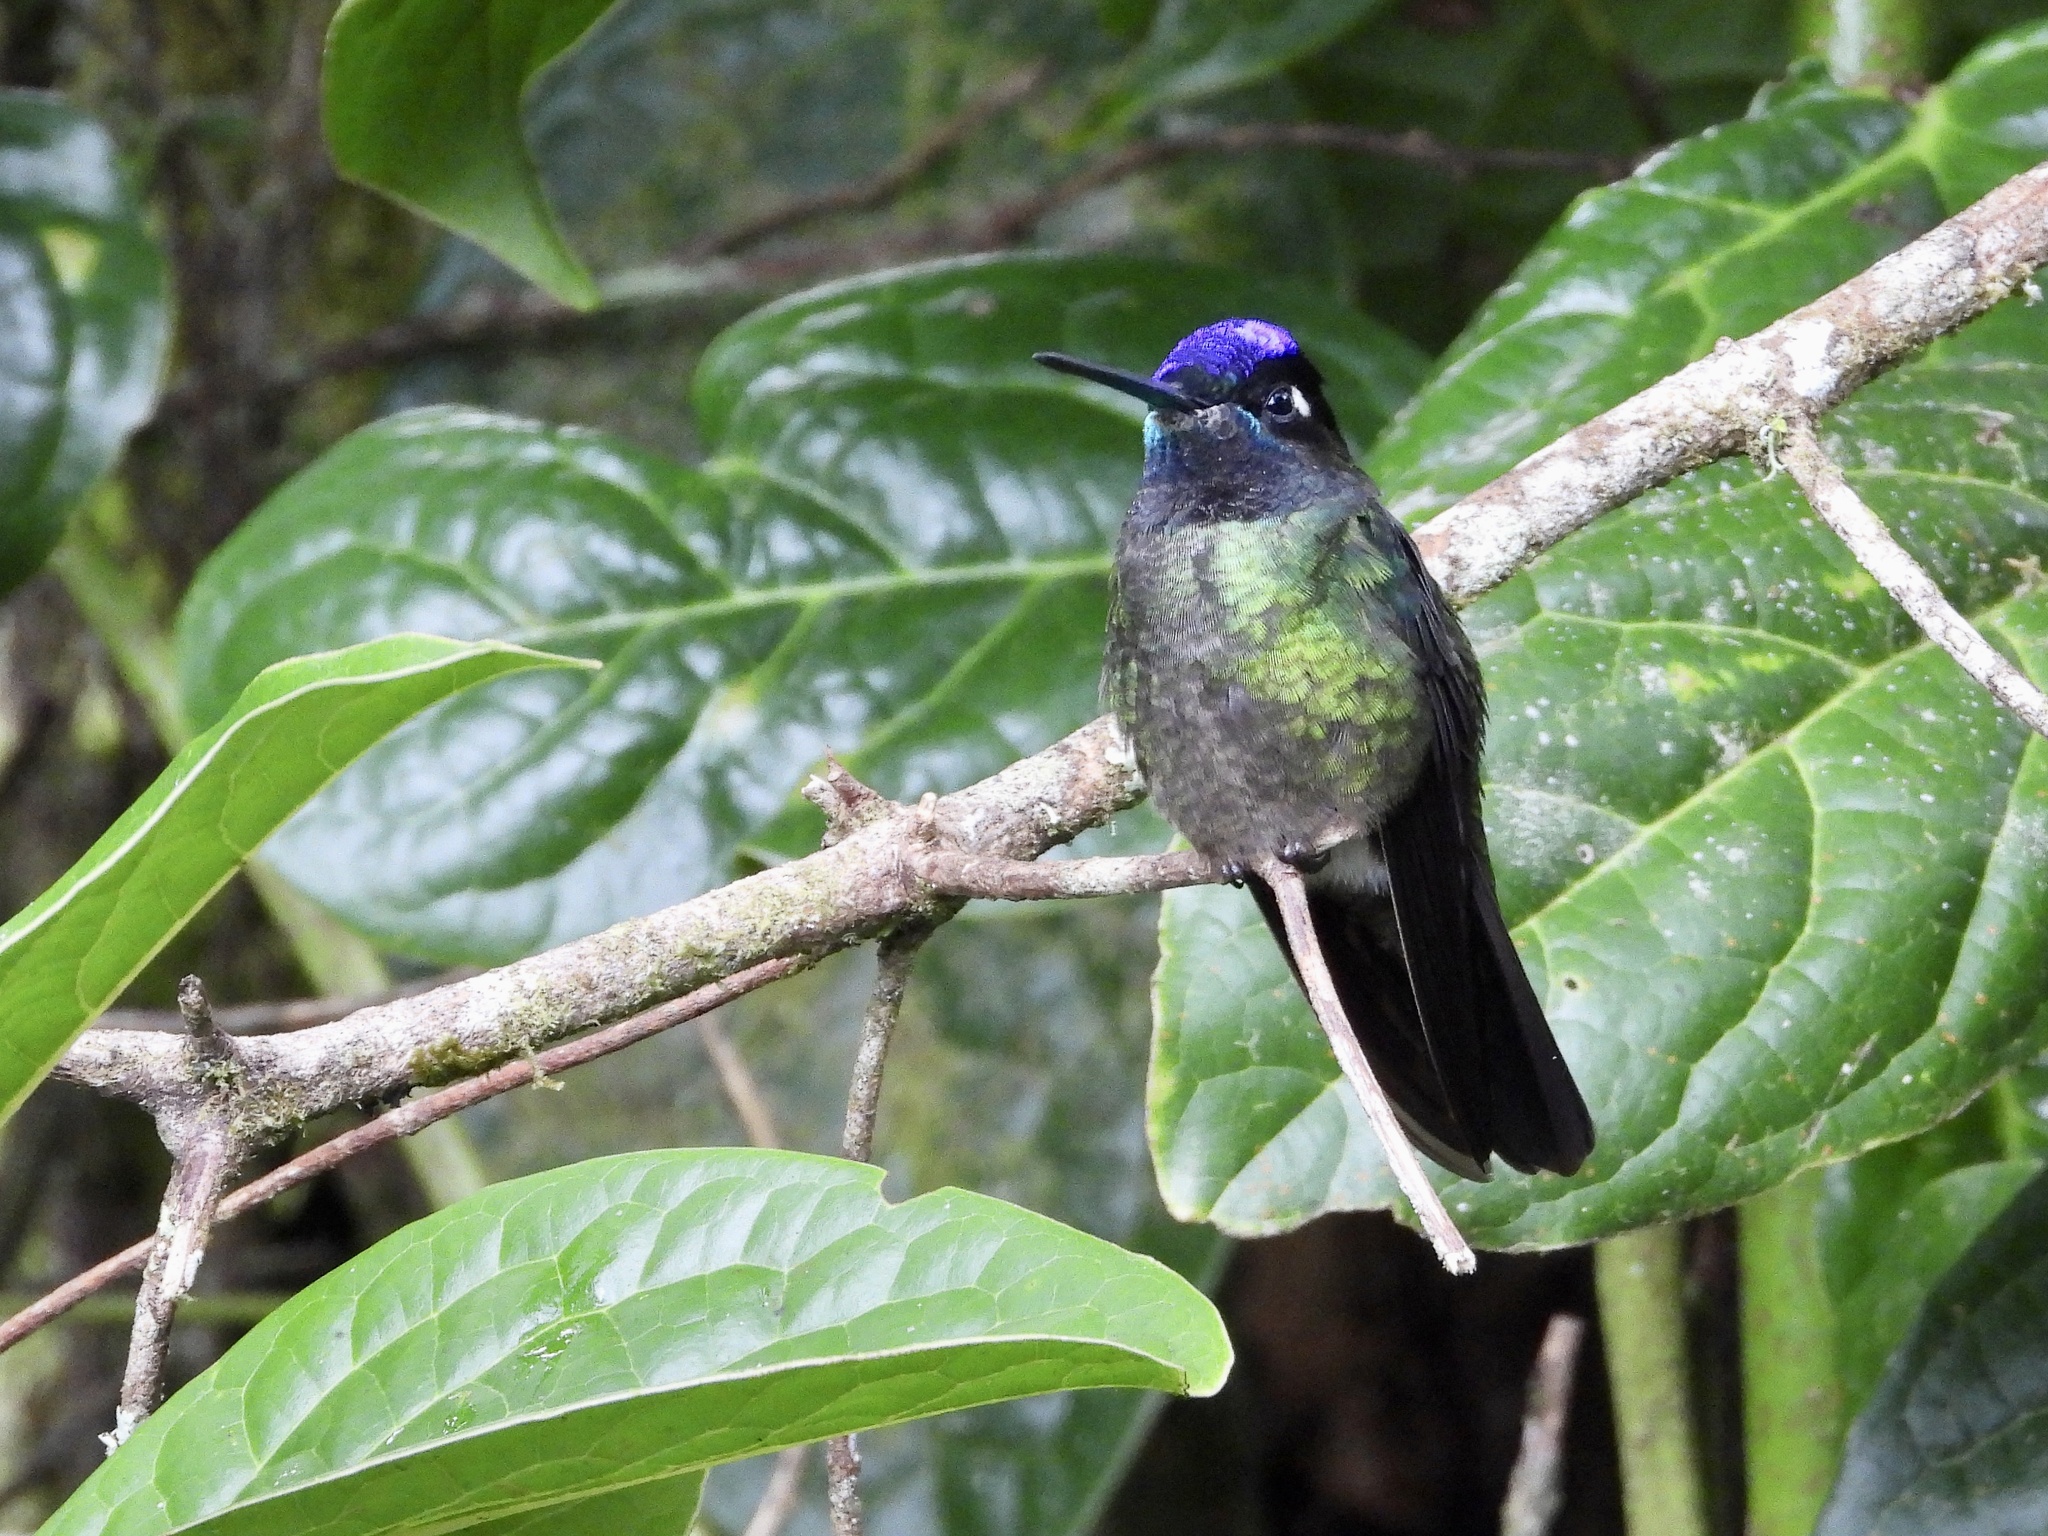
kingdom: Animalia
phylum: Chordata
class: Aves
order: Apodiformes
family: Trochilidae
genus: Eugenes
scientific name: Eugenes spectabilis
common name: Talamanca hummingbird
